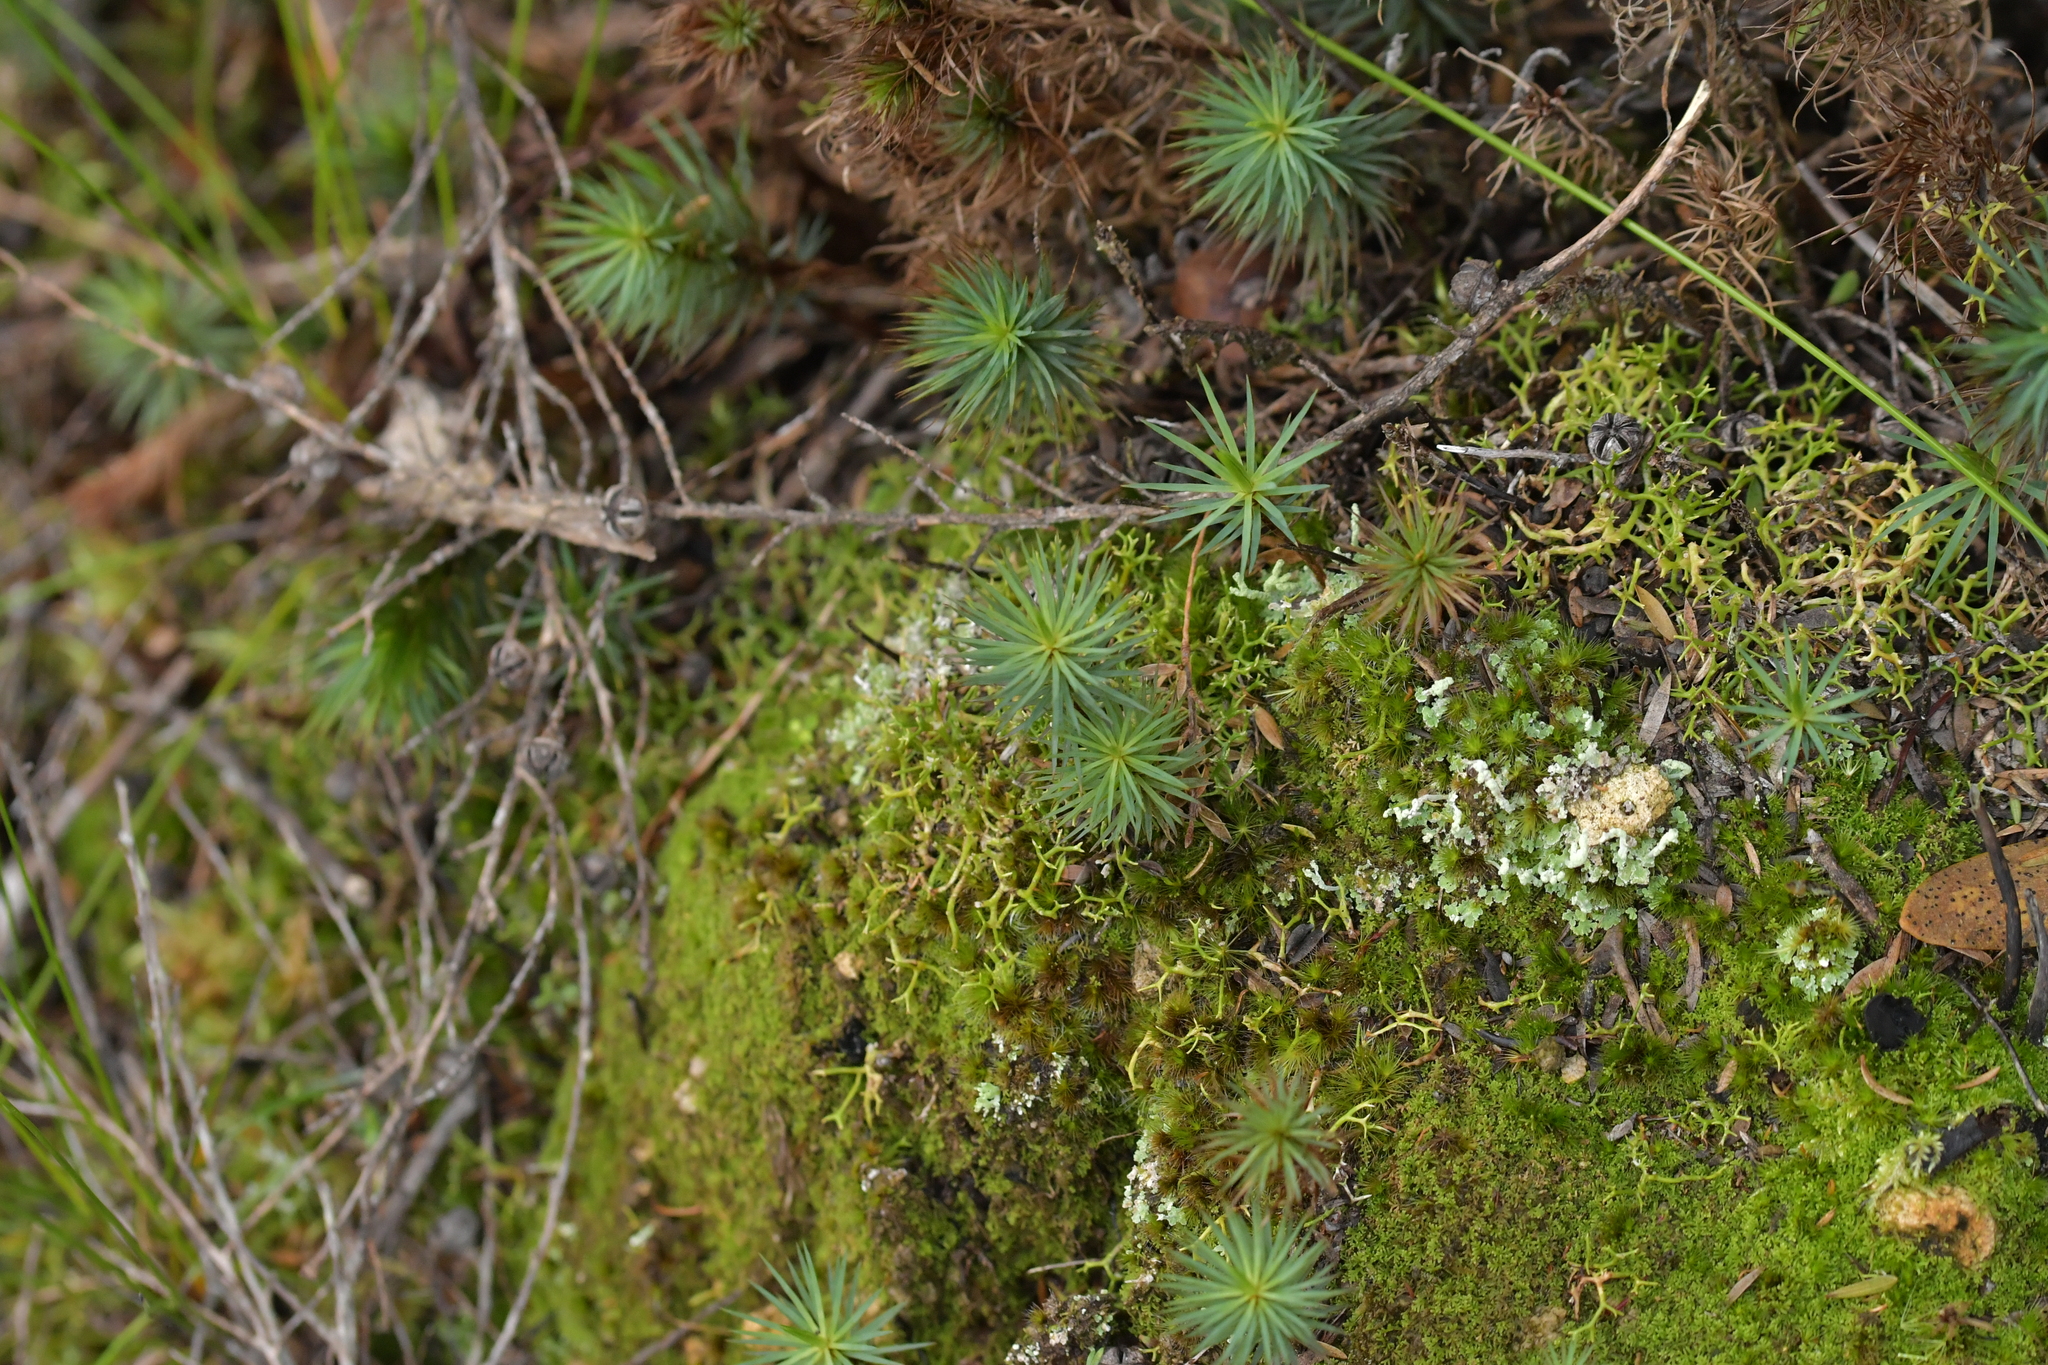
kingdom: Plantae
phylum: Bryophyta
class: Polytrichopsida
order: Polytrichales
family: Polytrichaceae
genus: Dawsonia
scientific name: Dawsonia superba
